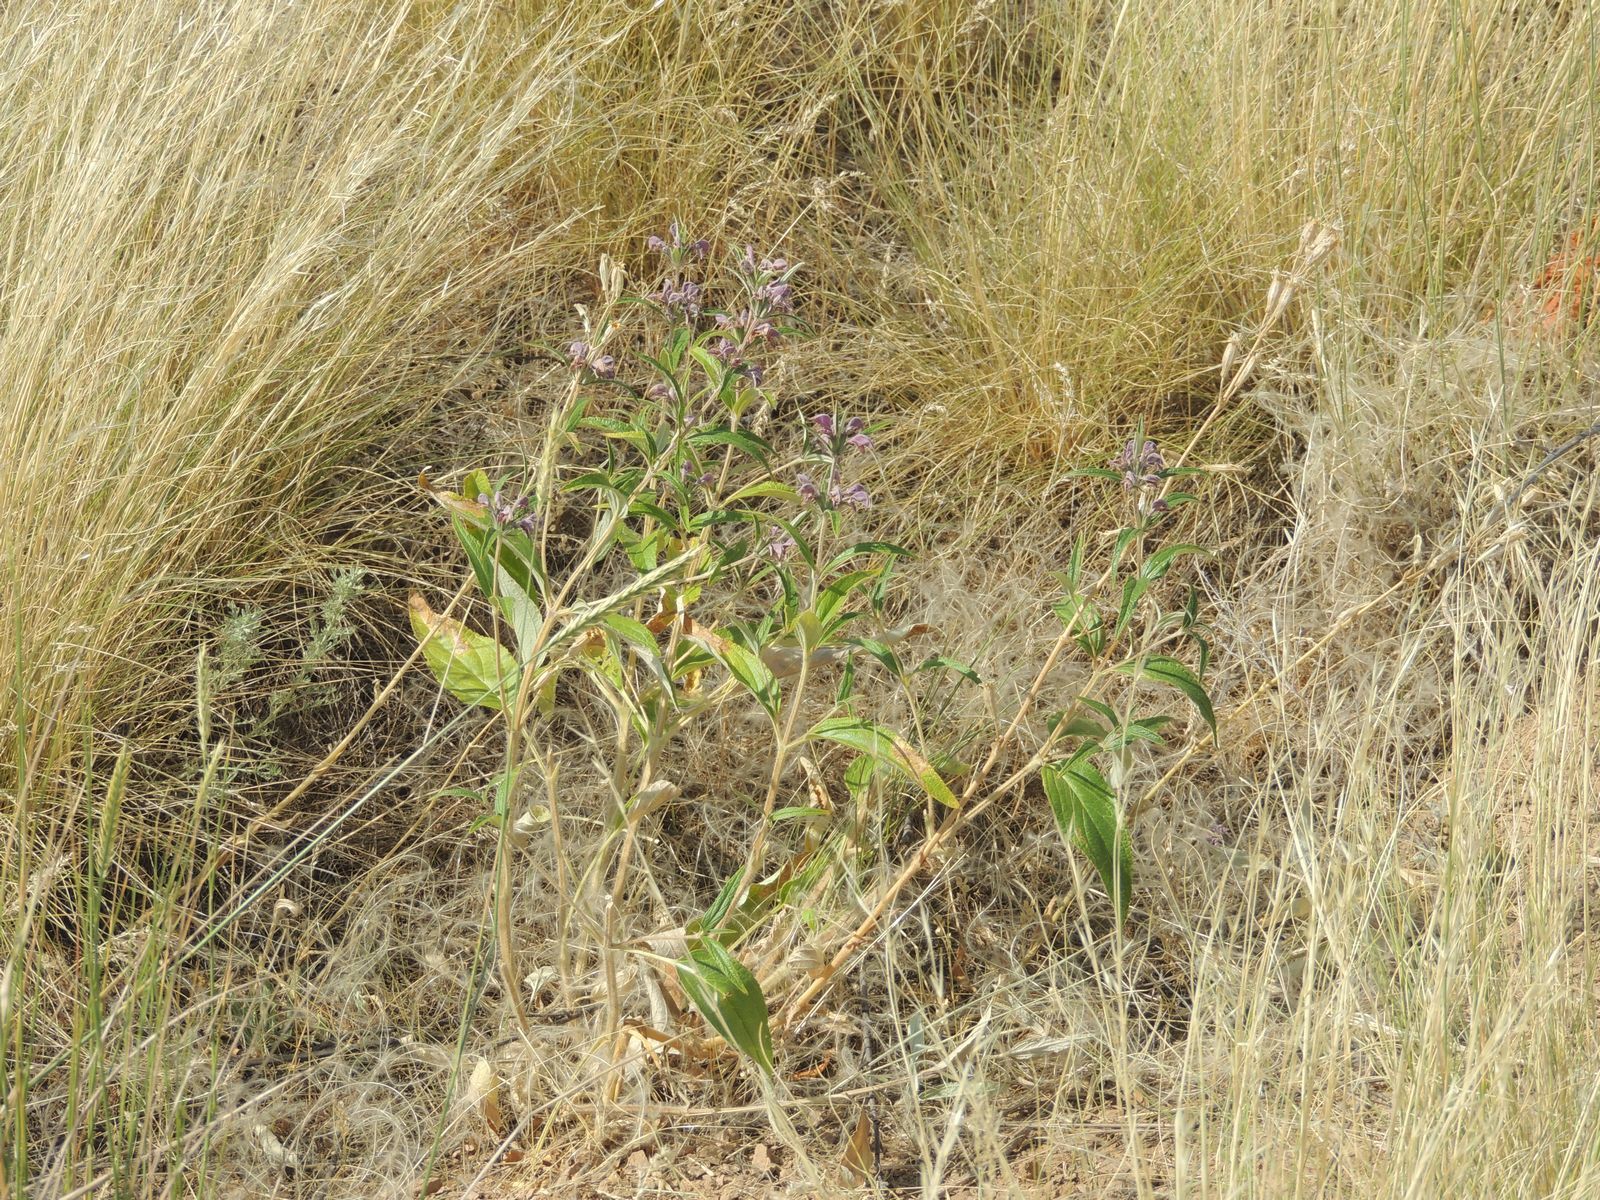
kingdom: Plantae
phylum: Tracheophyta
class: Magnoliopsida
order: Lamiales
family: Lamiaceae
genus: Phlomis
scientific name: Phlomis herba-venti
